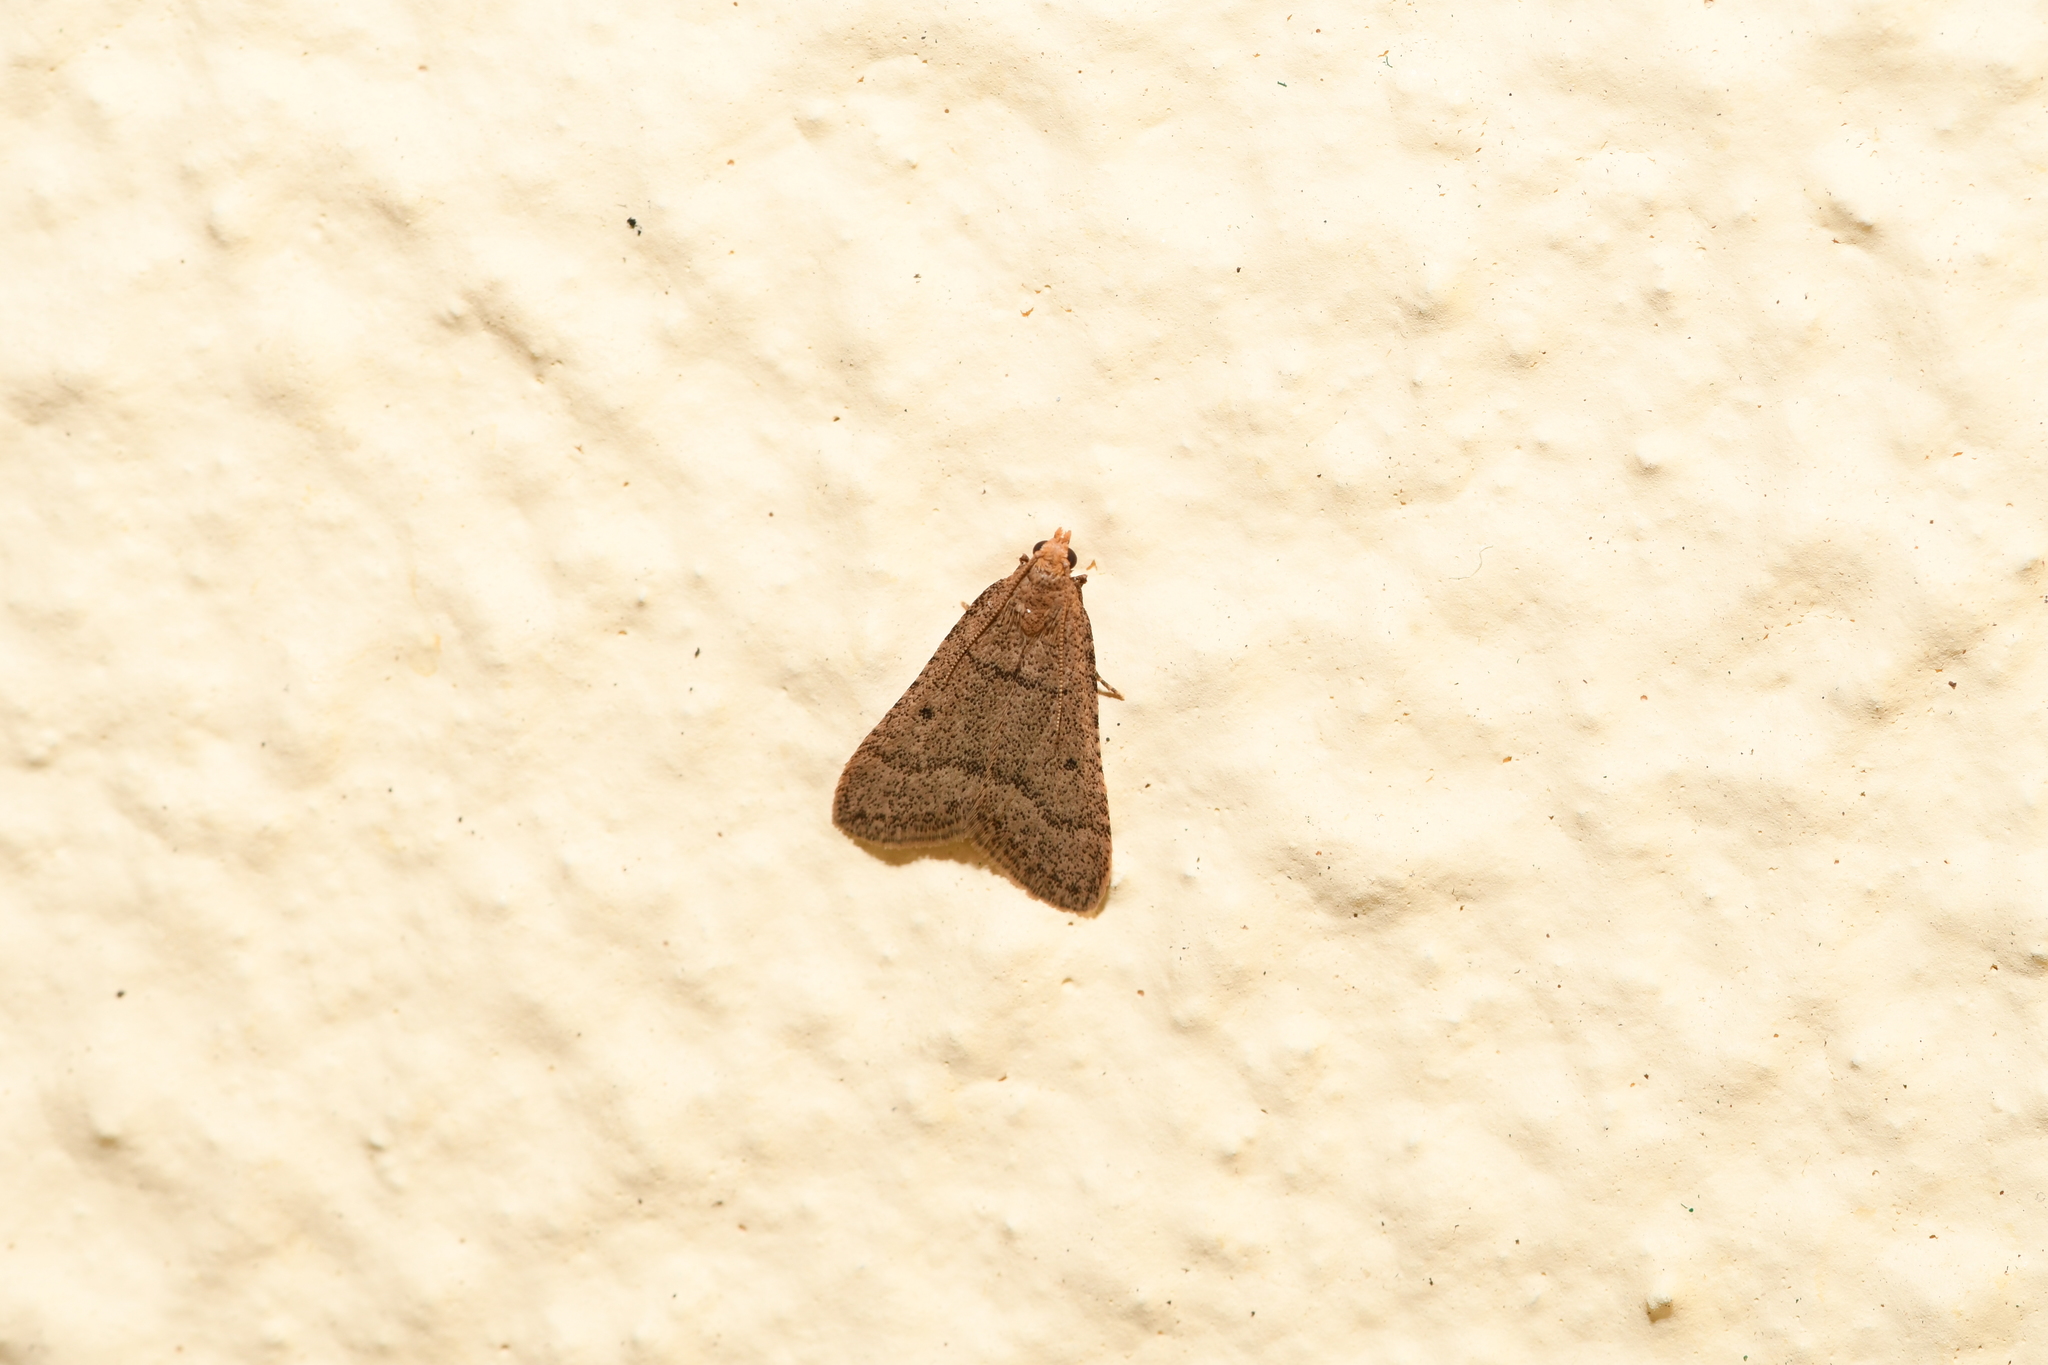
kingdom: Animalia
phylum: Arthropoda
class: Insecta
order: Lepidoptera
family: Pyralidae
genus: Bostra
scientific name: Bostra obsoletalis
